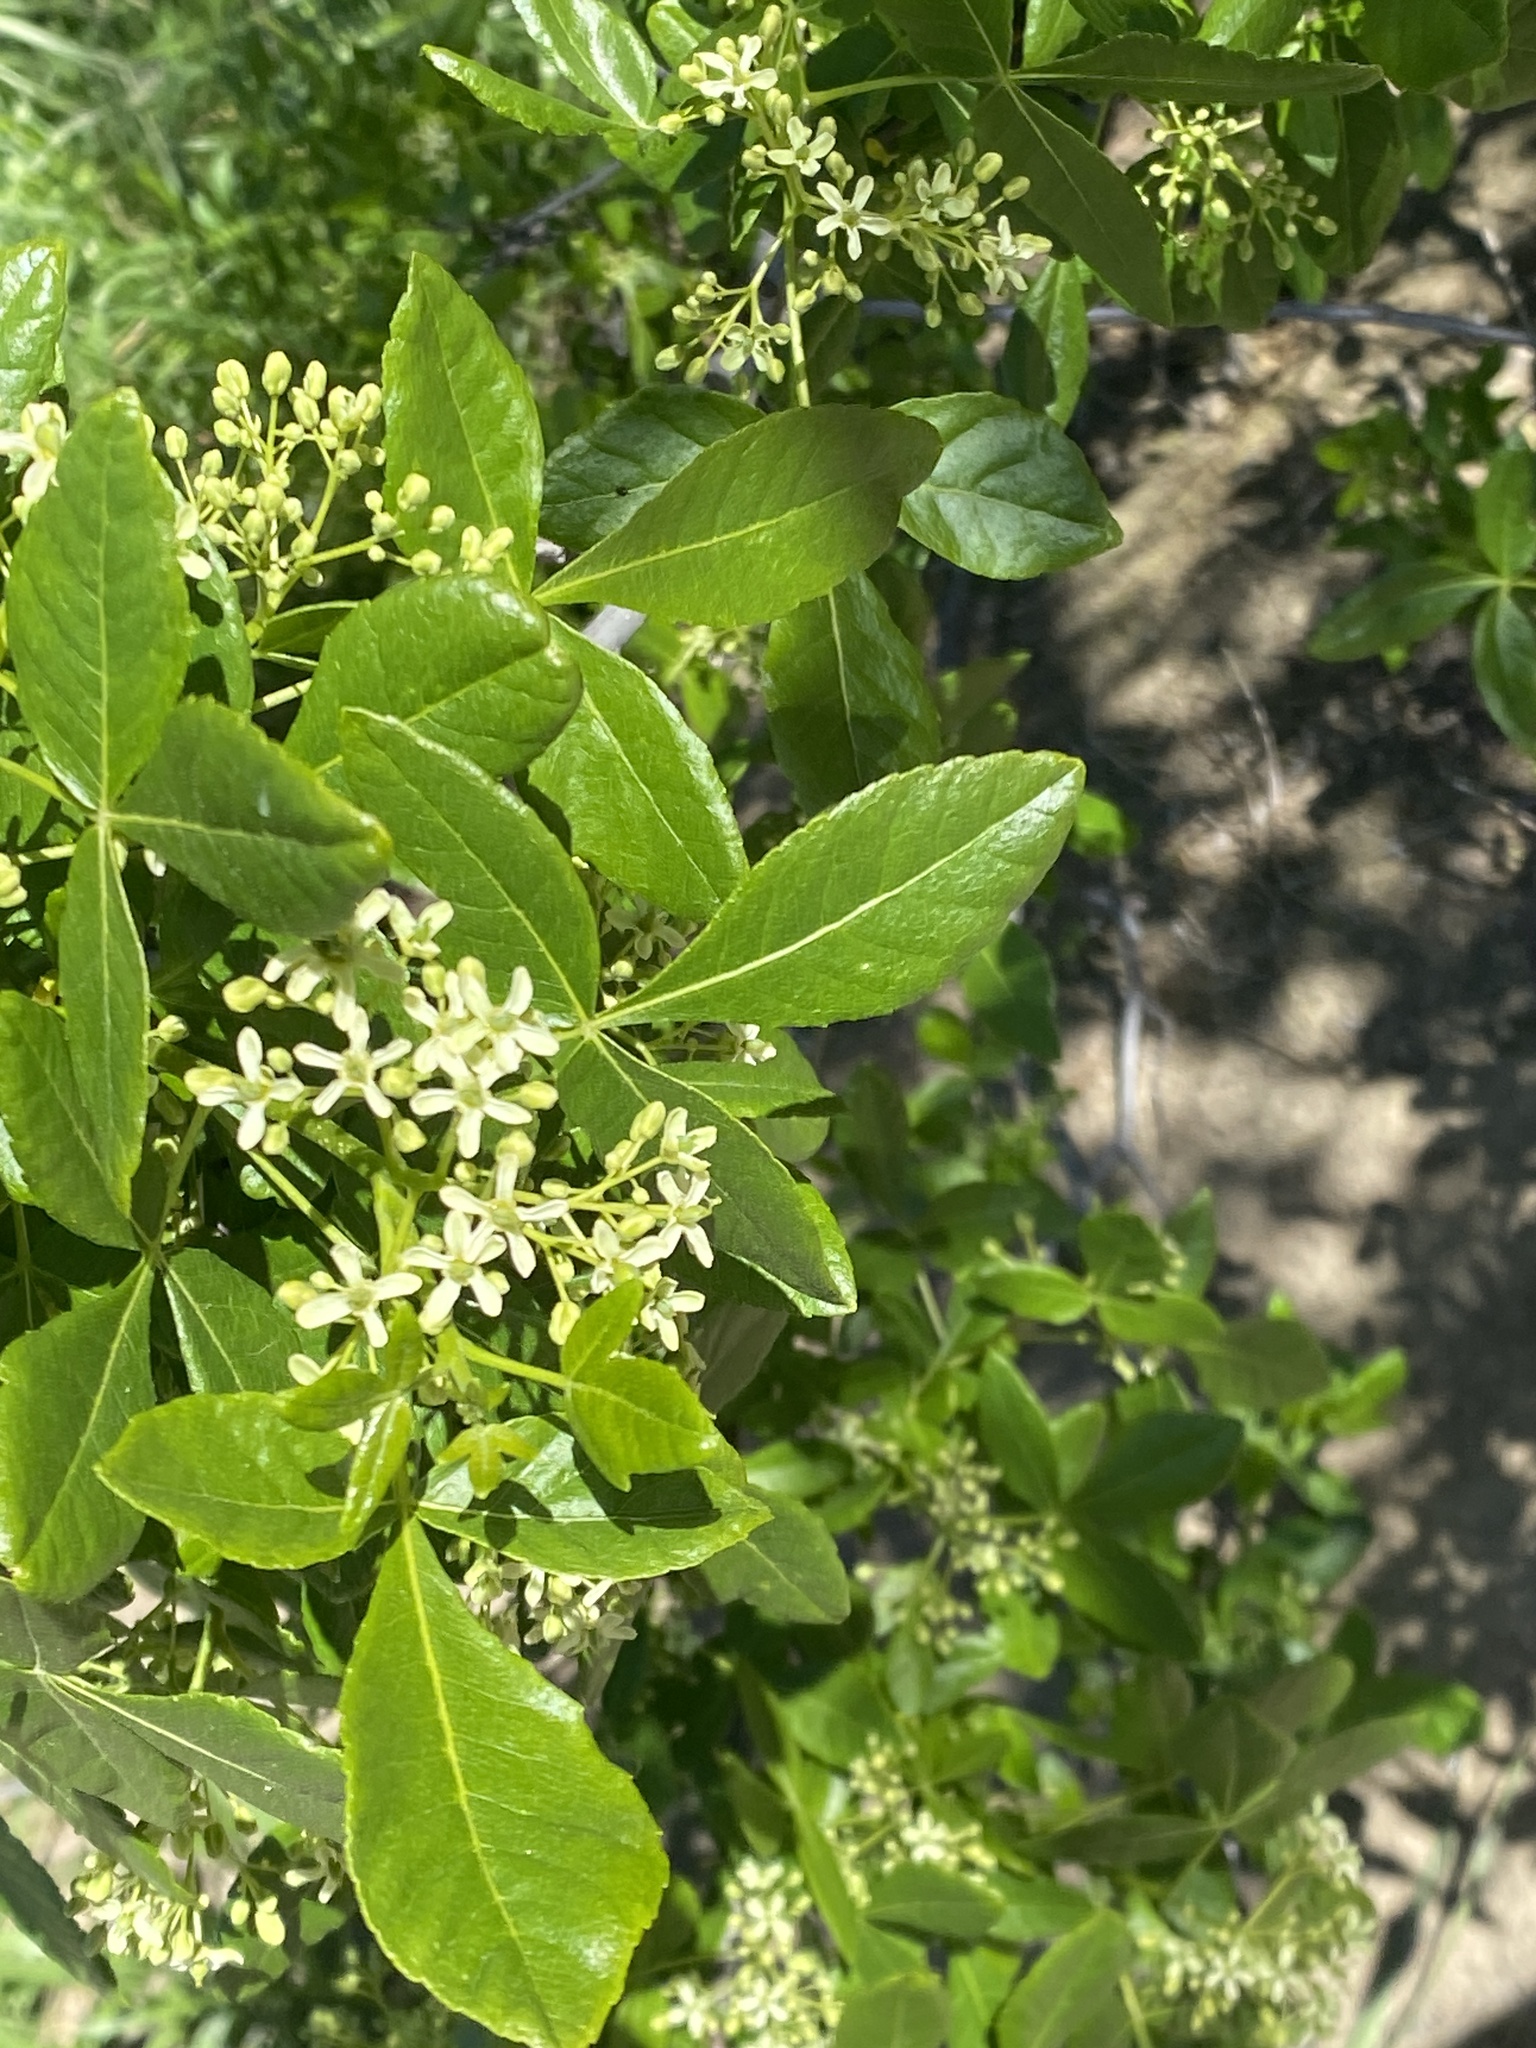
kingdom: Plantae
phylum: Tracheophyta
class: Magnoliopsida
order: Sapindales
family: Rutaceae
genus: Ptelea
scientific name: Ptelea crenulata
